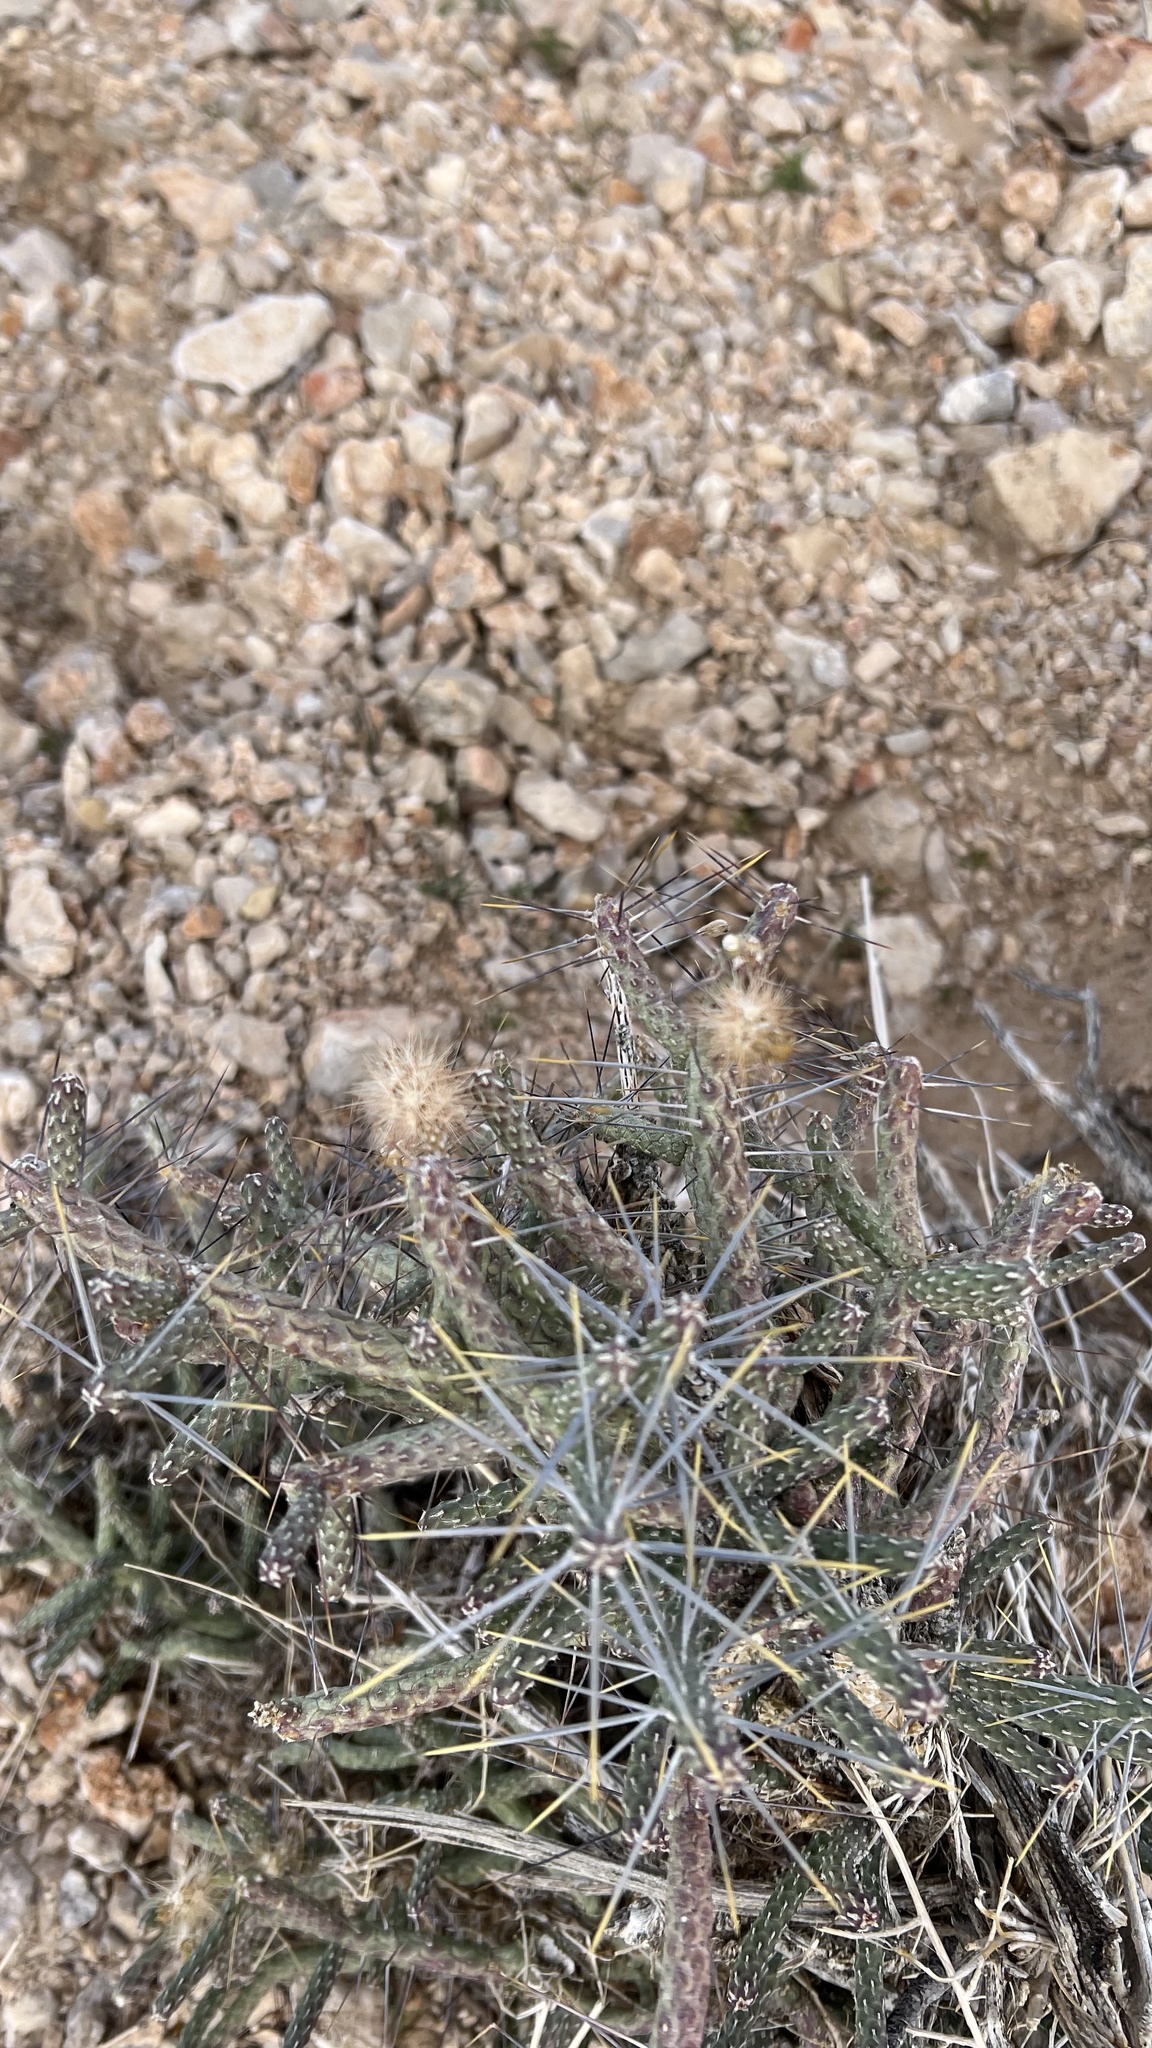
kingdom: Plantae
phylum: Tracheophyta
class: Magnoliopsida
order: Caryophyllales
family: Cactaceae
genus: Cylindropuntia
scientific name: Cylindropuntia ramosissima
